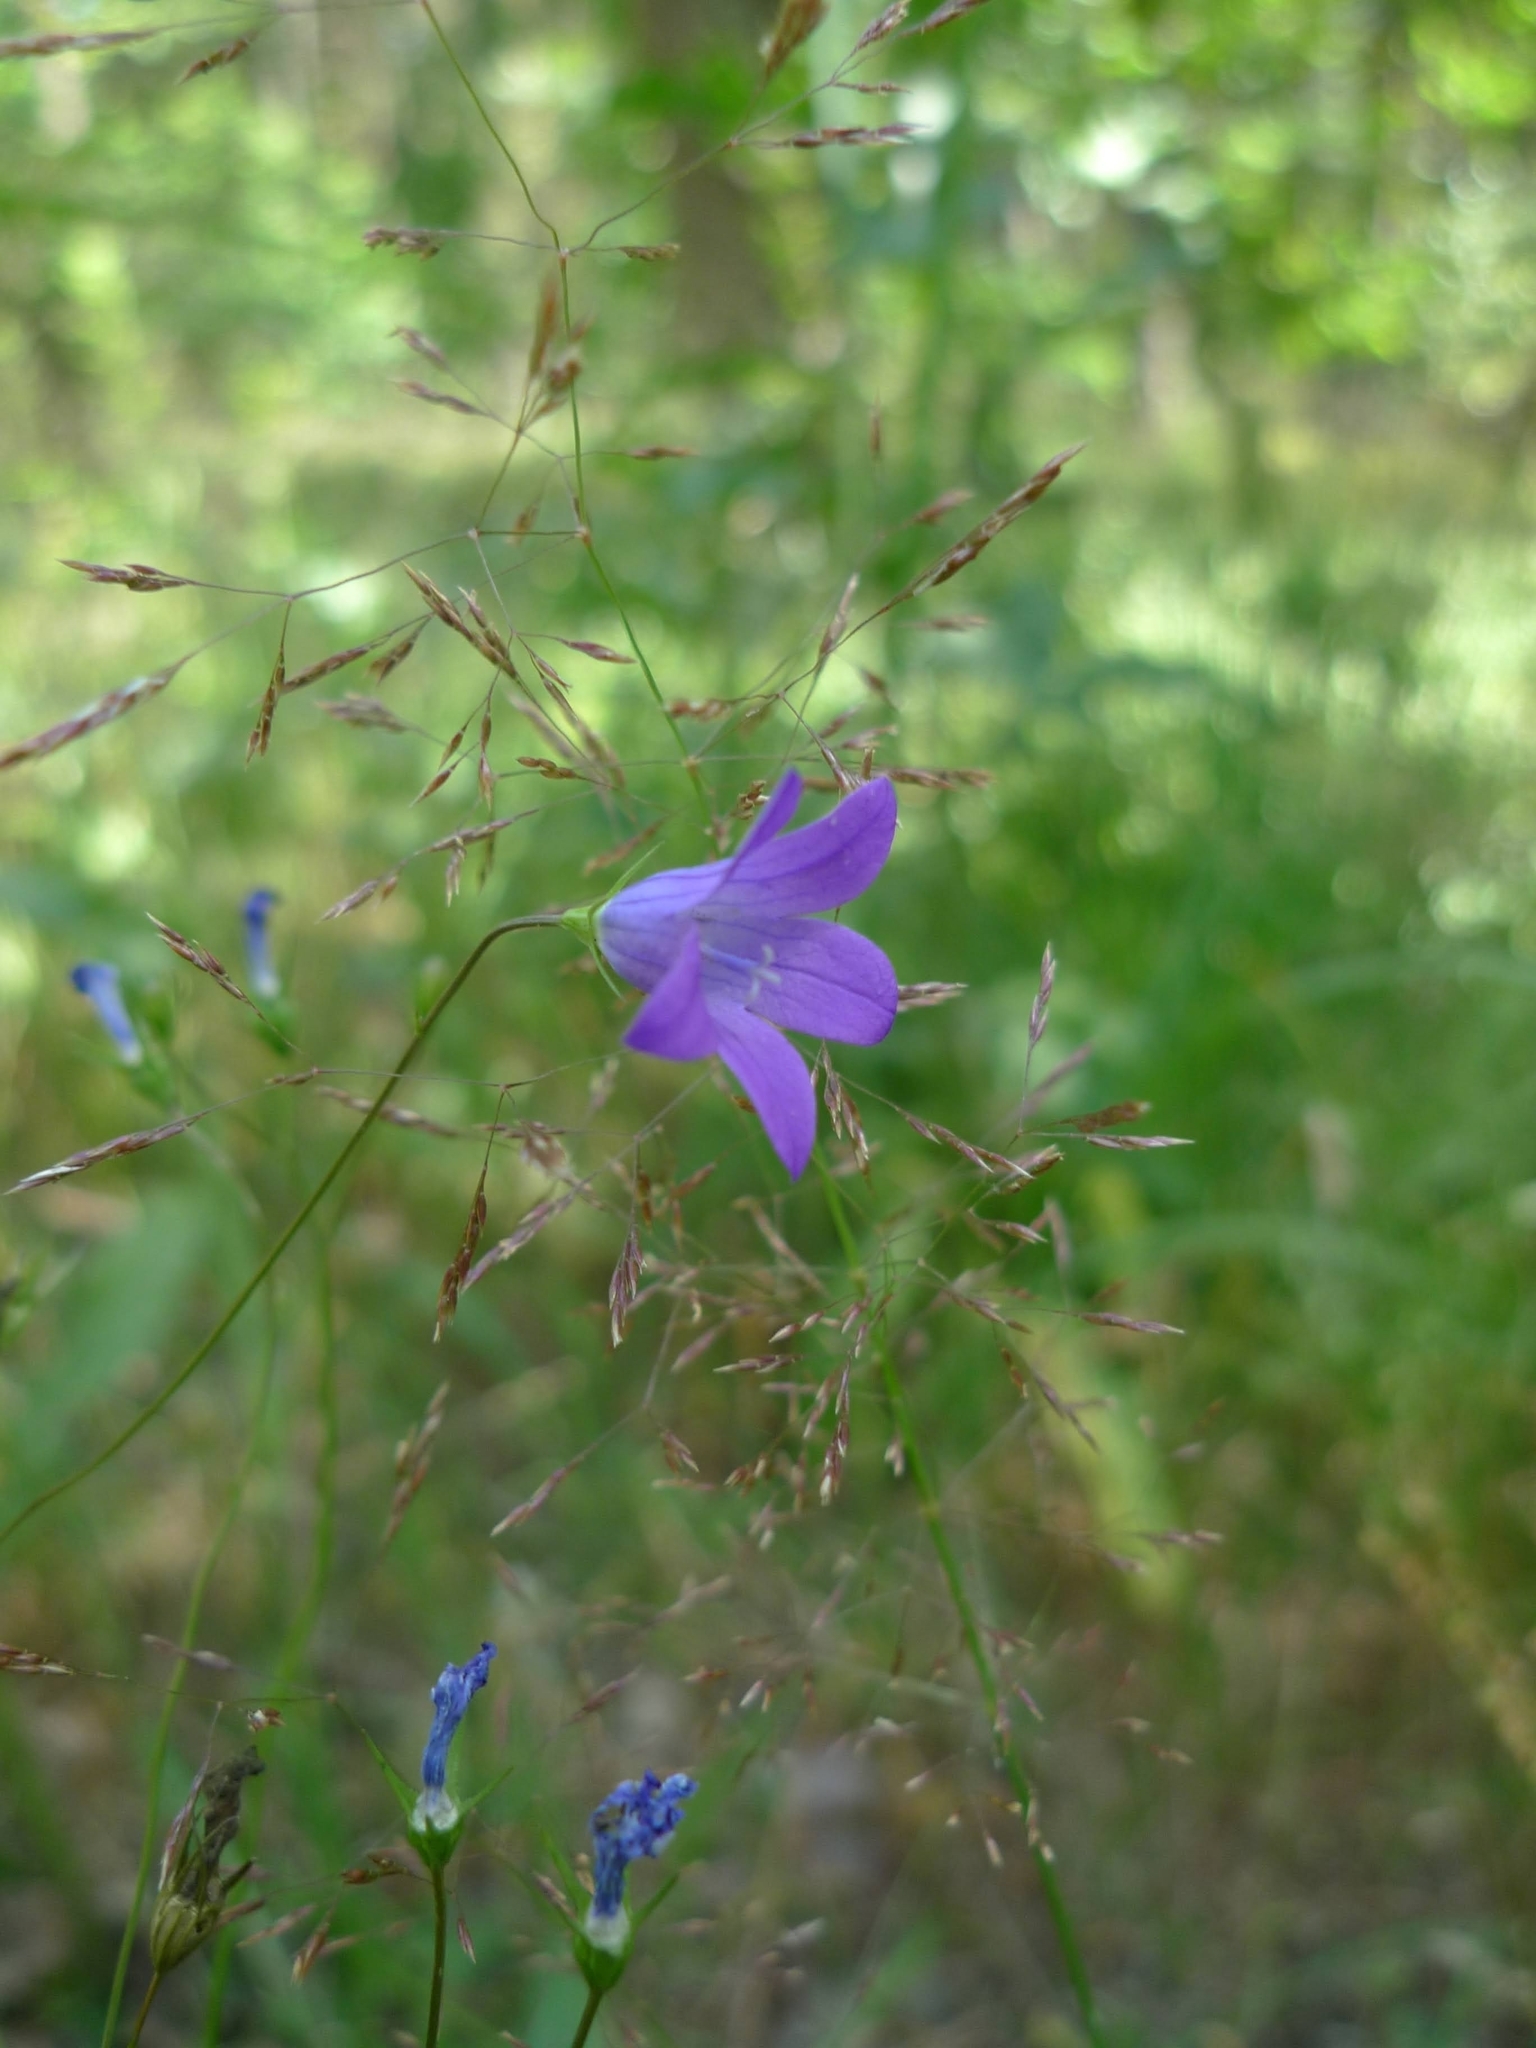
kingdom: Plantae
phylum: Tracheophyta
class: Magnoliopsida
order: Asterales
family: Campanulaceae
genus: Campanula
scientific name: Campanula patula
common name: Spreading bellflower
